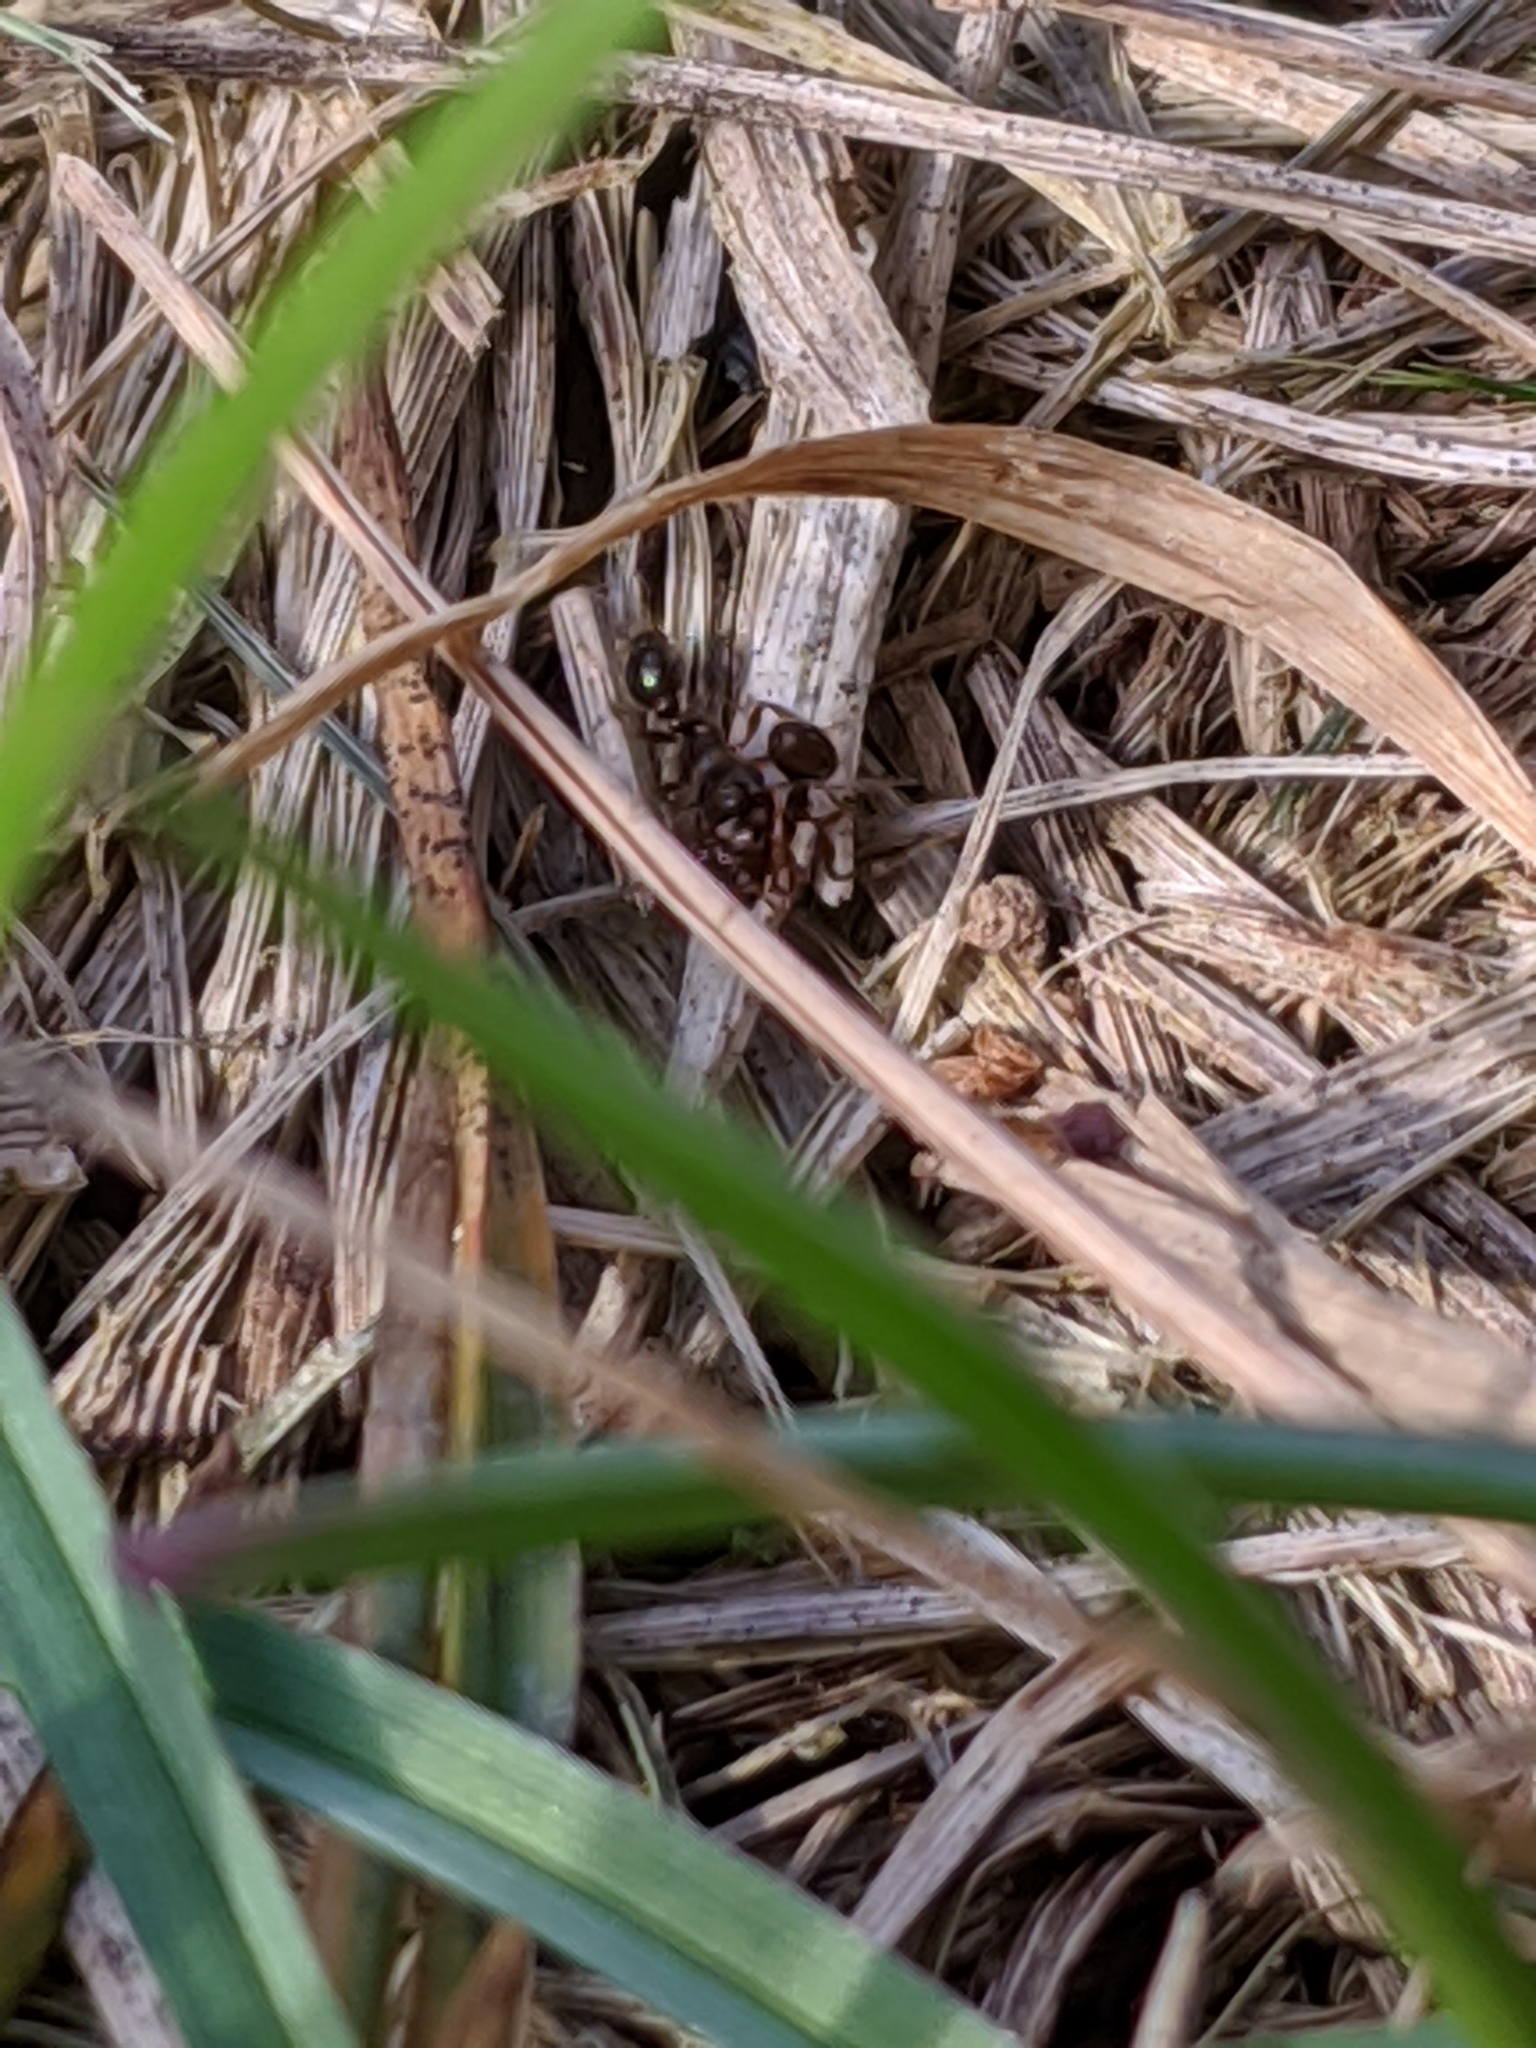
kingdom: Animalia
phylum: Arthropoda
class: Insecta
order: Hymenoptera
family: Formicidae
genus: Tetramorium
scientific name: Tetramorium immigrans
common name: Pavement ant
